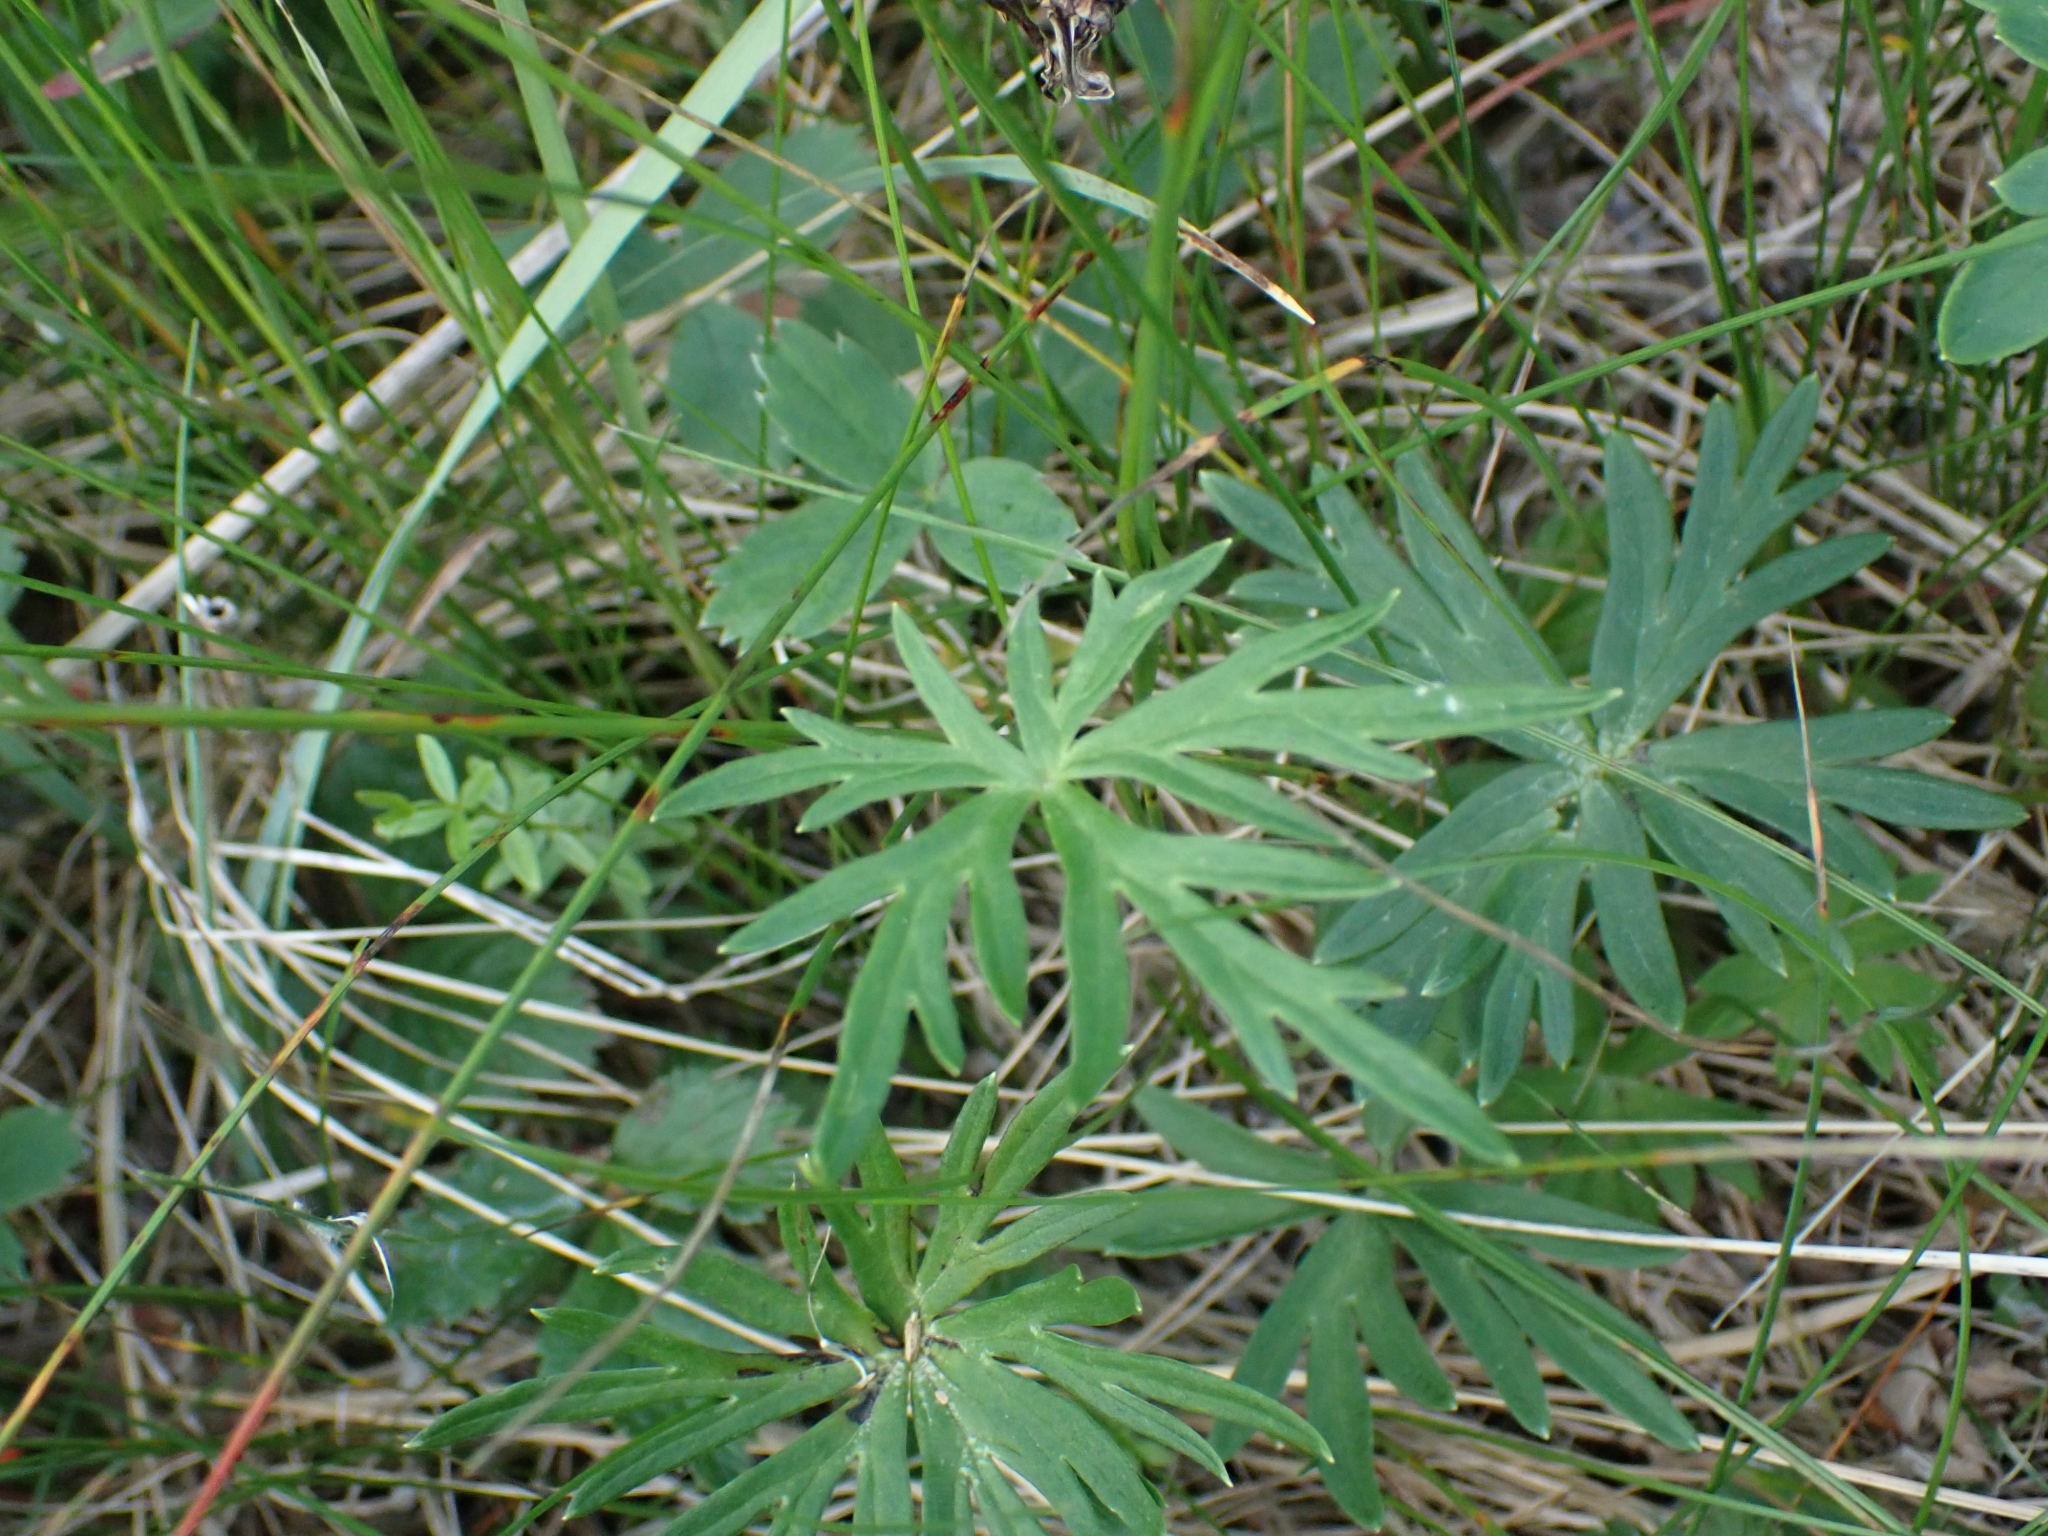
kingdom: Plantae
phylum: Tracheophyta
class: Magnoliopsida
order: Ranunculales
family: Ranunculaceae
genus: Aconitum
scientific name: Aconitum delphiniifolium
